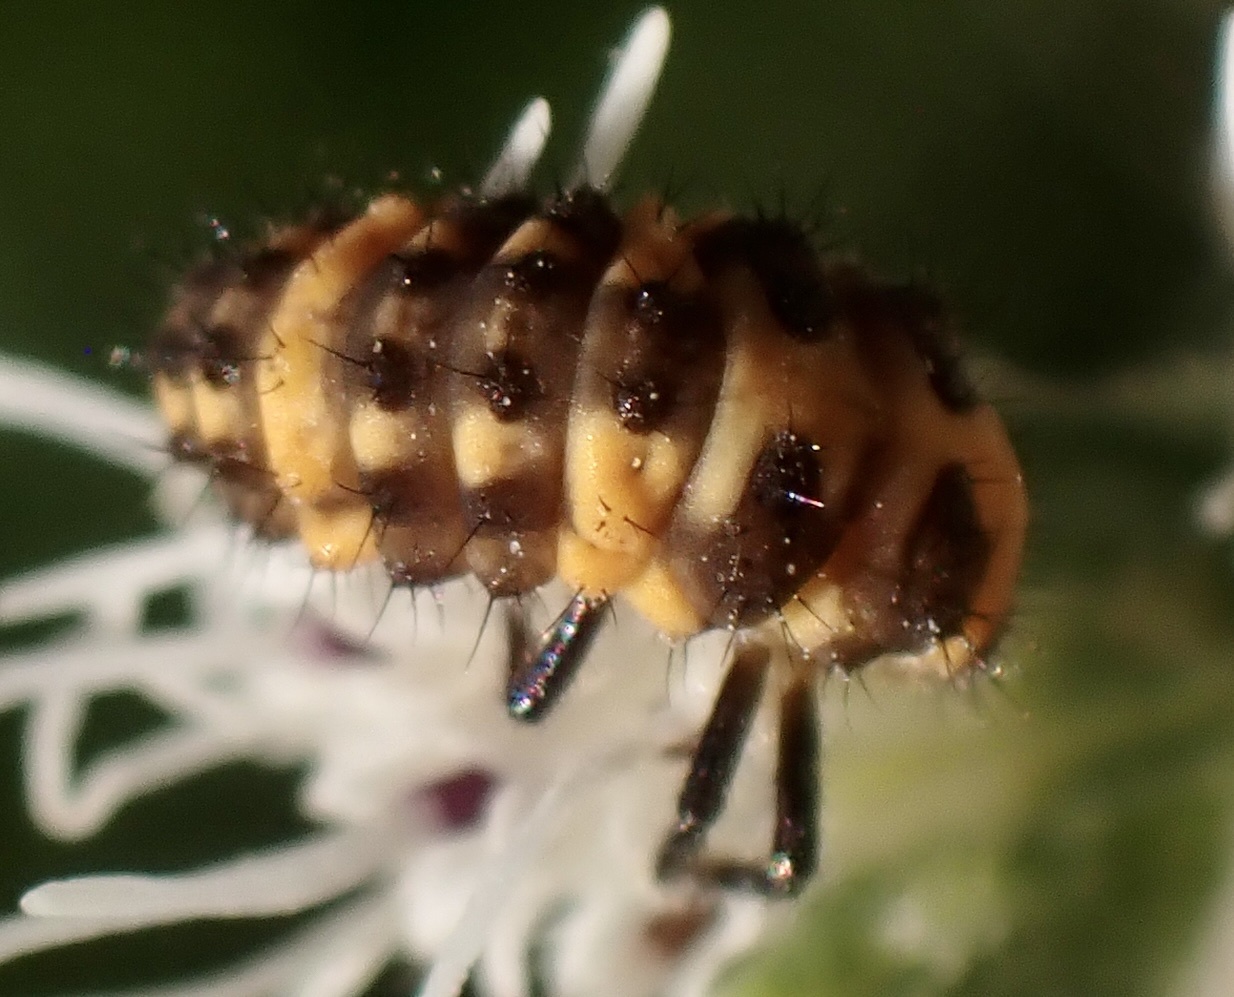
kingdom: Animalia
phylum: Arthropoda
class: Insecta
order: Coleoptera
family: Coccinellidae
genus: Coleomegilla
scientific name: Coleomegilla maculata
